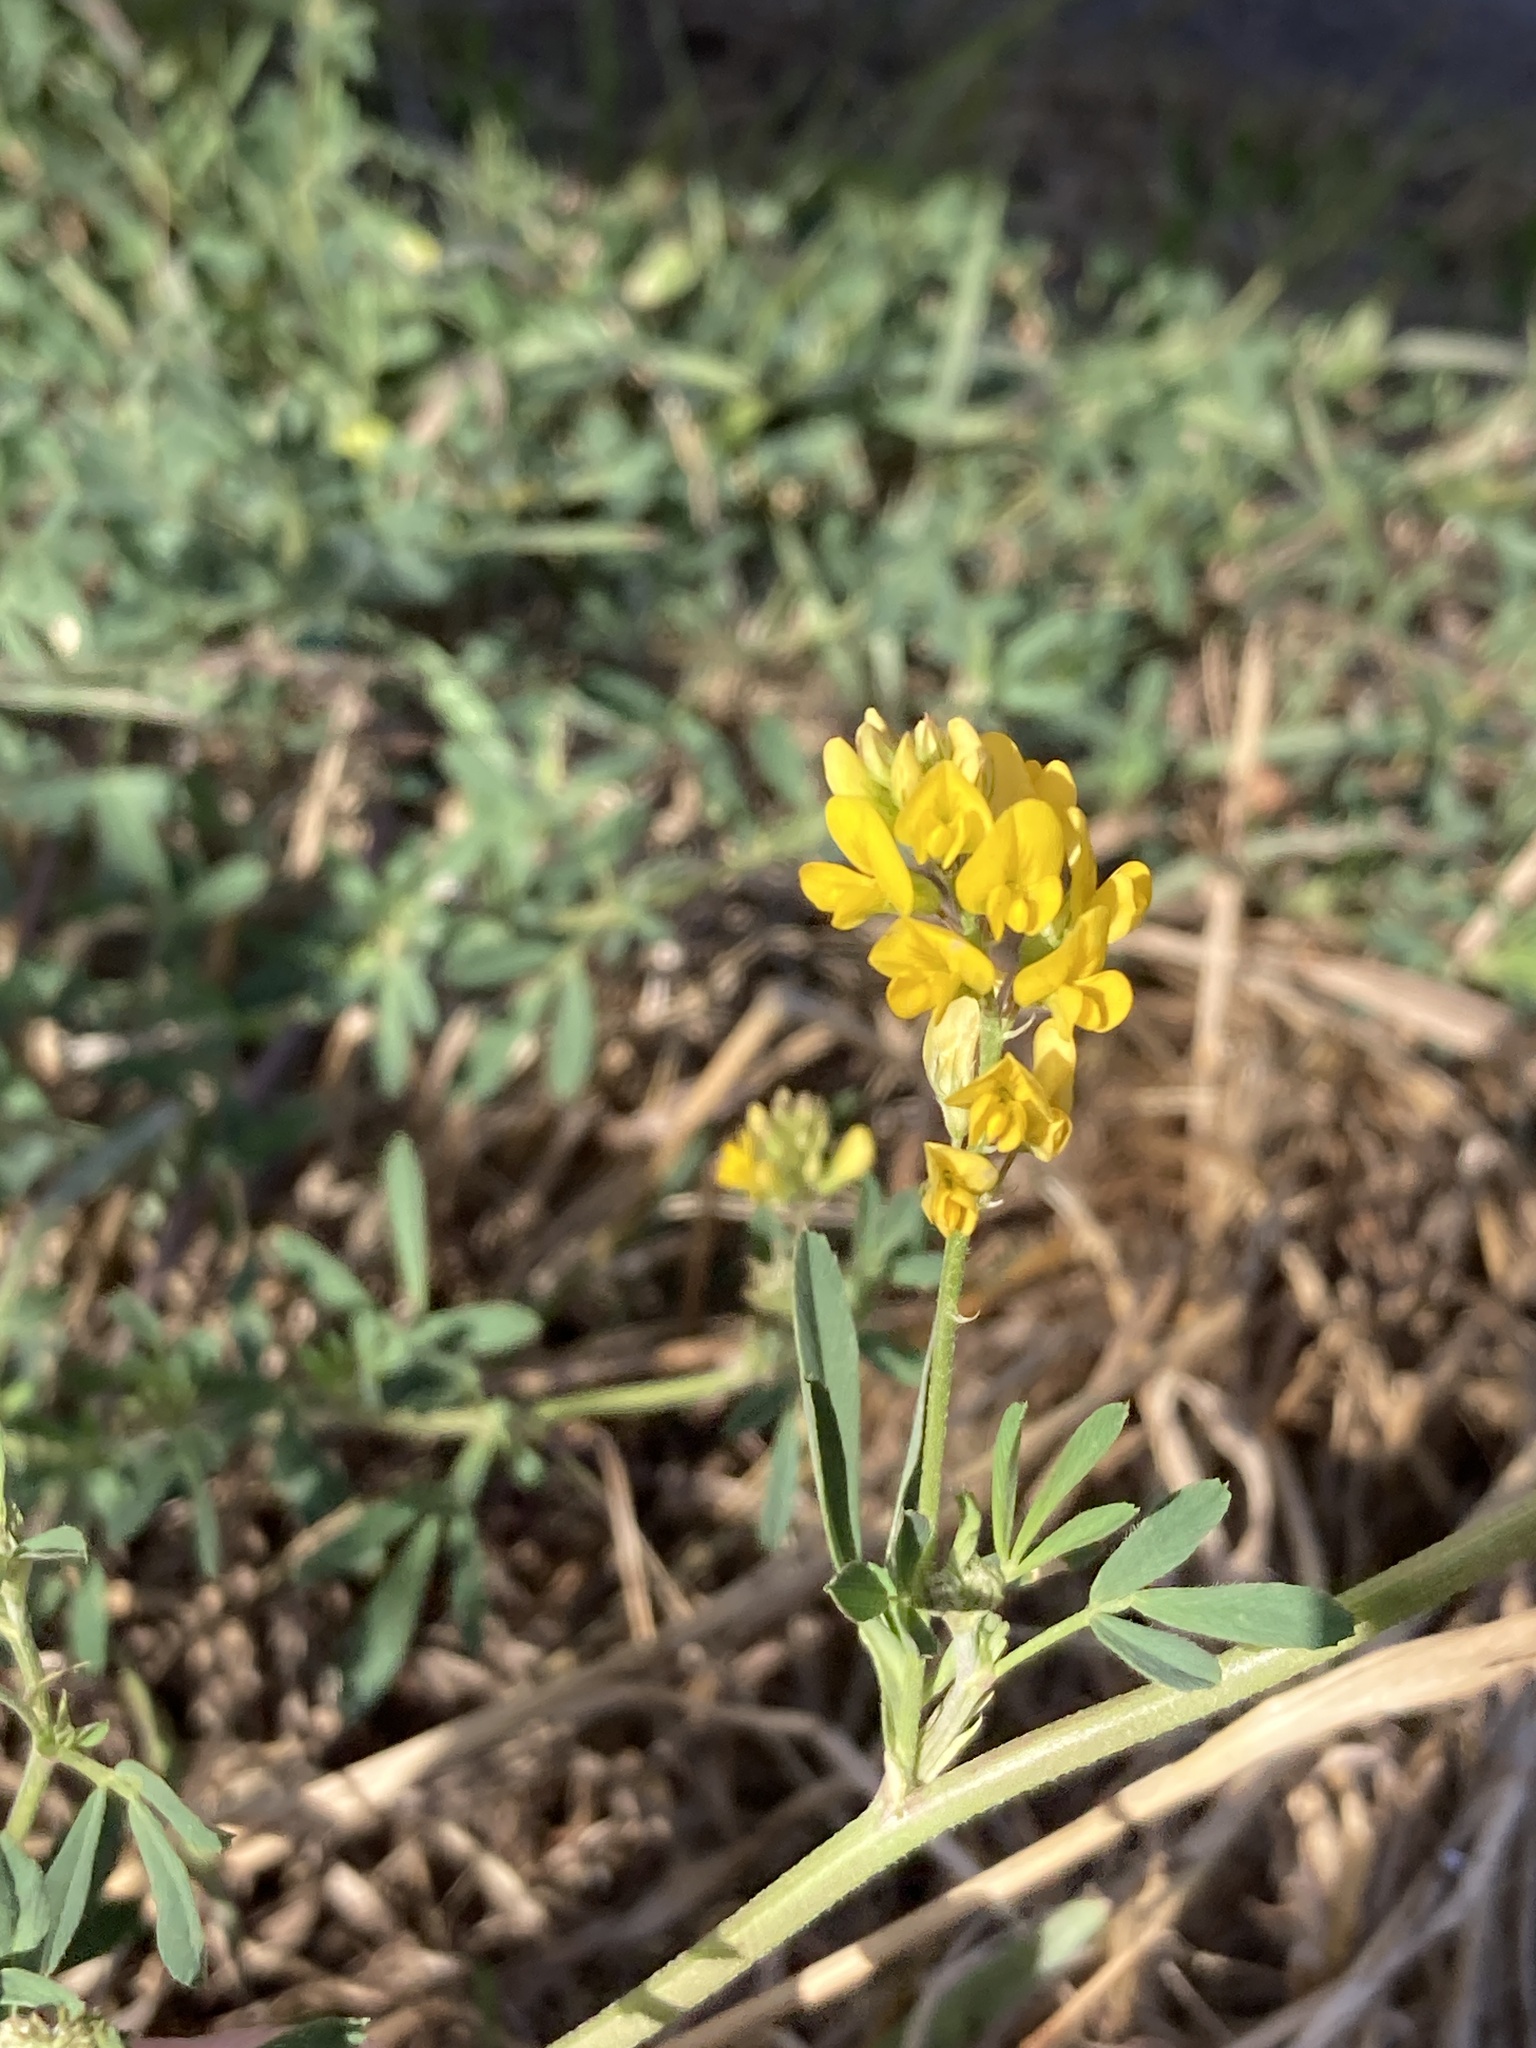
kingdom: Plantae
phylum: Tracheophyta
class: Magnoliopsida
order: Fabales
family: Fabaceae
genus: Medicago
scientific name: Medicago falcata
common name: Sickle medick
